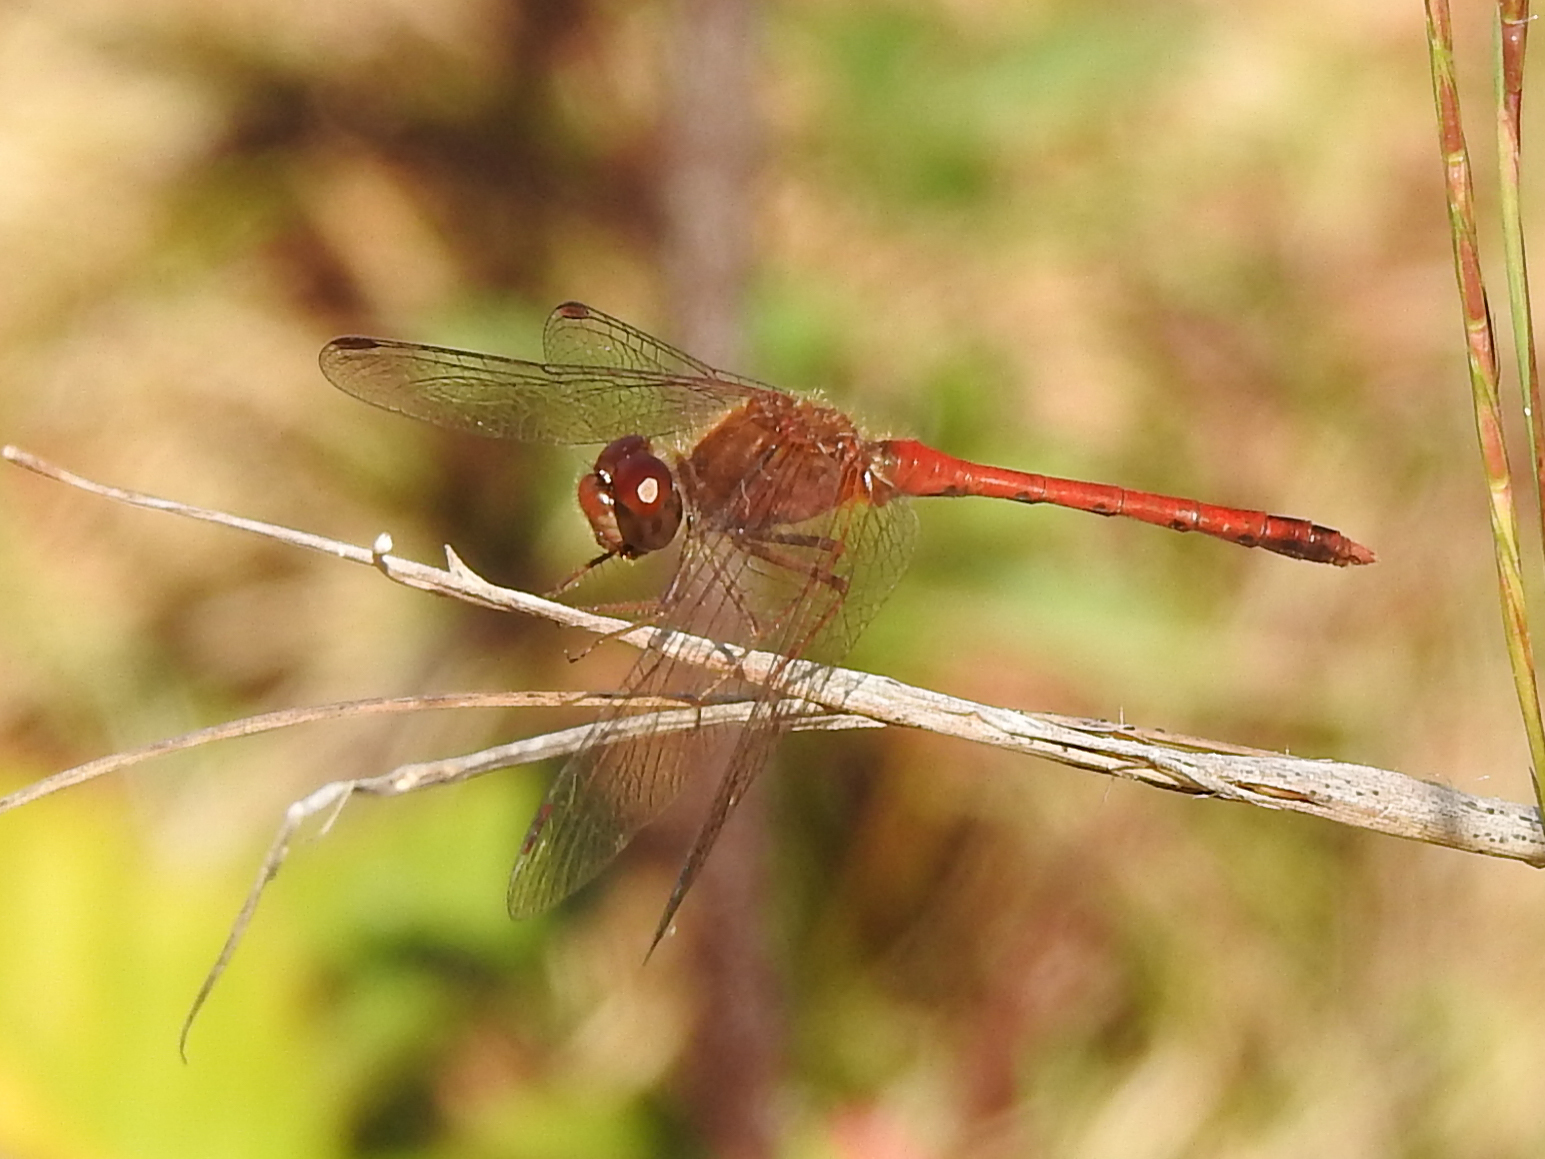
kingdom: Animalia
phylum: Arthropoda
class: Insecta
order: Odonata
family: Libellulidae
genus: Sympetrum
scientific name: Sympetrum vicinum
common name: Autumn meadowhawk
